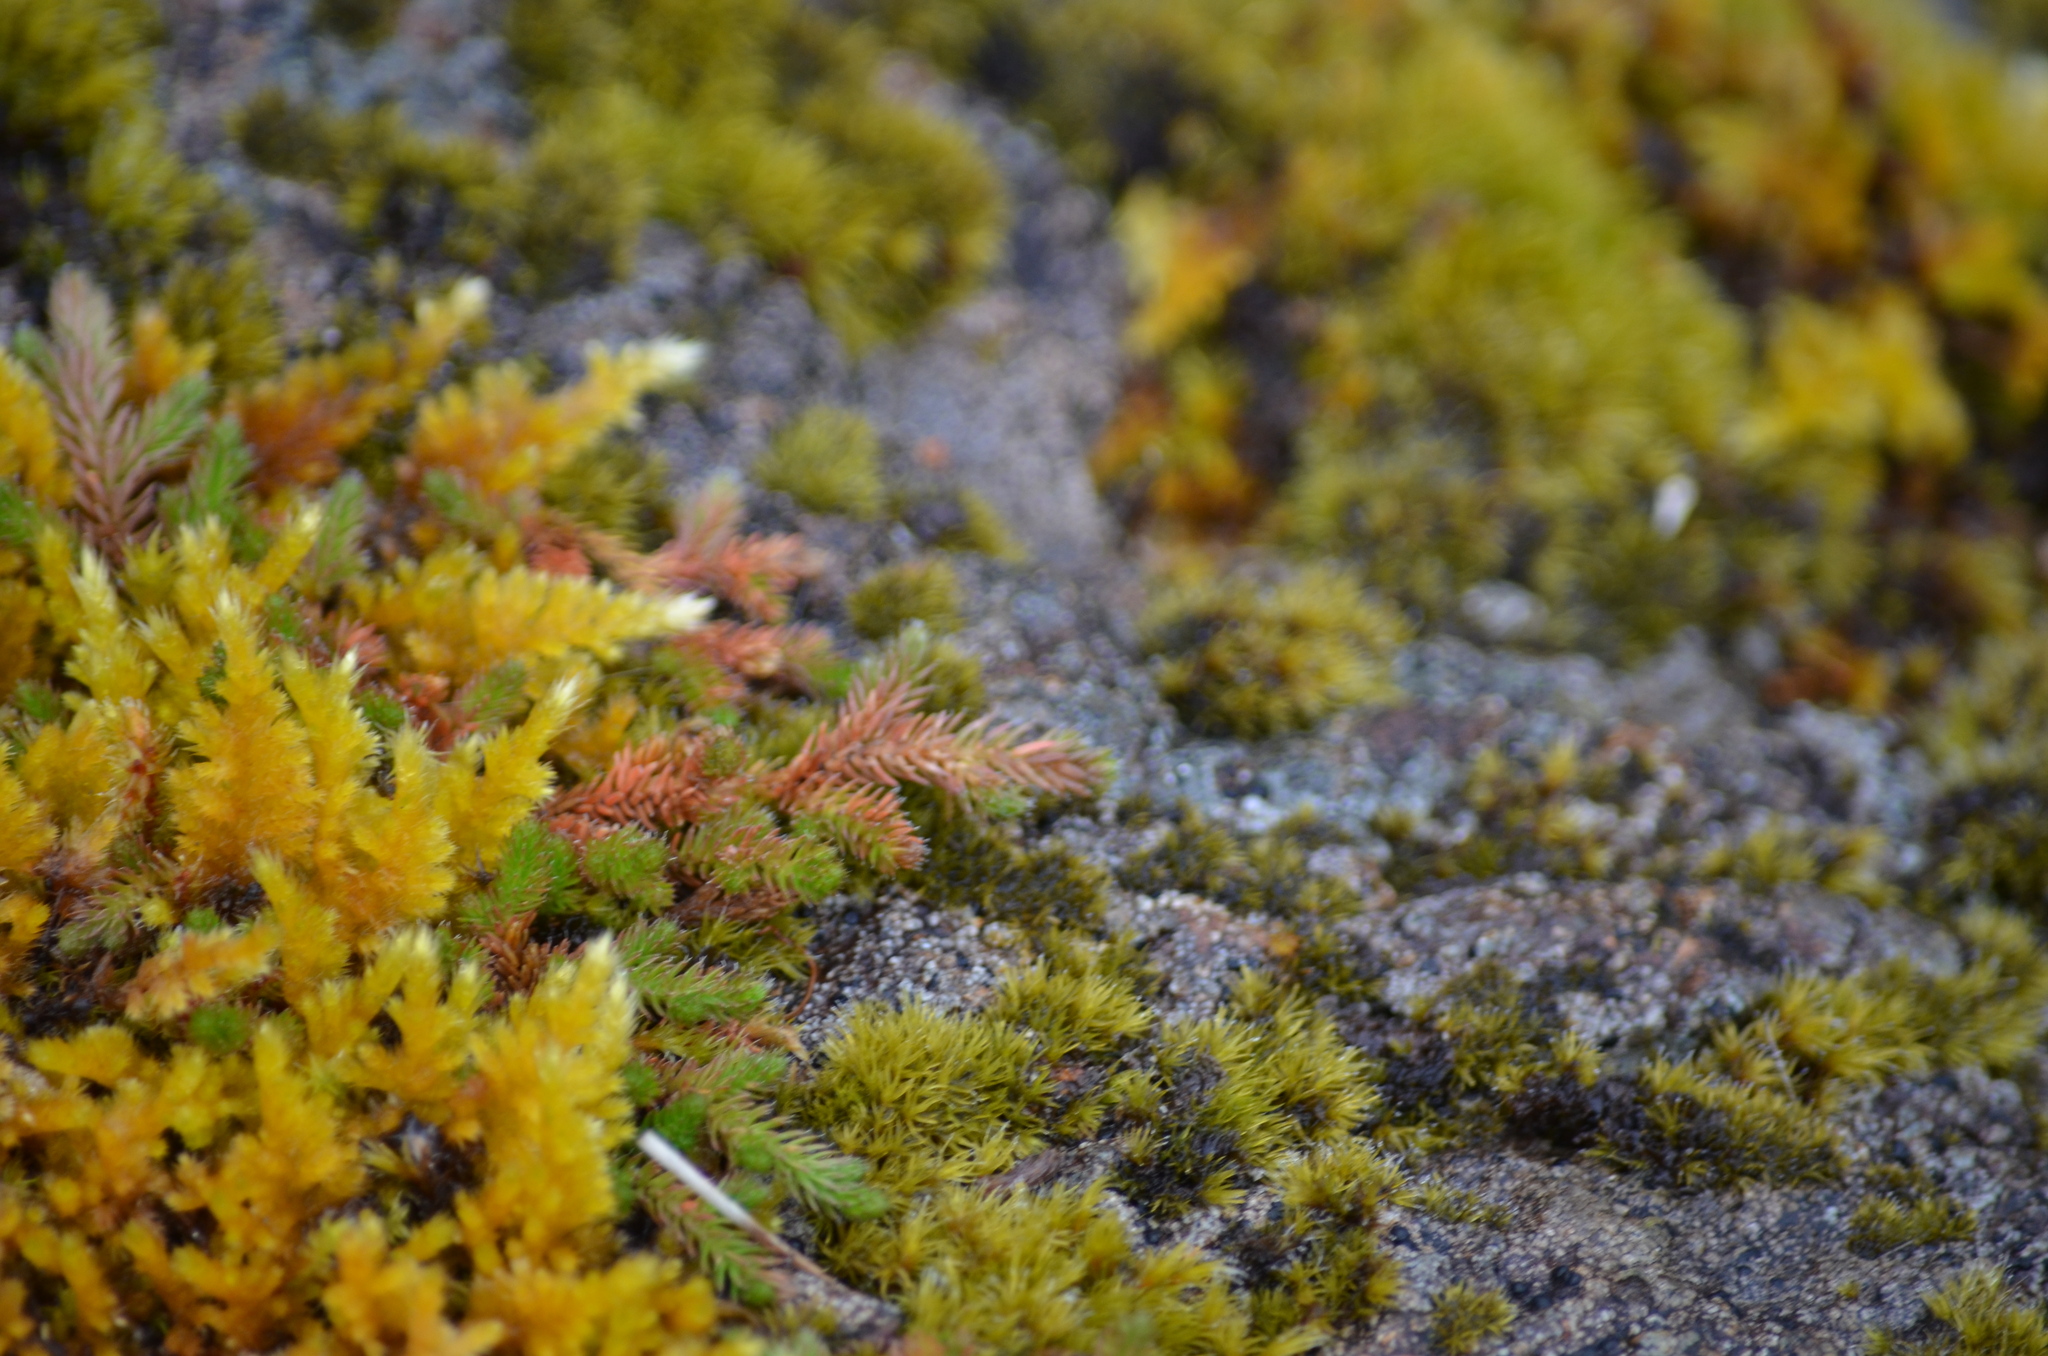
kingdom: Plantae
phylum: Bryophyta
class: Bryopsida
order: Hypnales
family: Brachytheciaceae
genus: Homalothecium
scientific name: Homalothecium aureum
